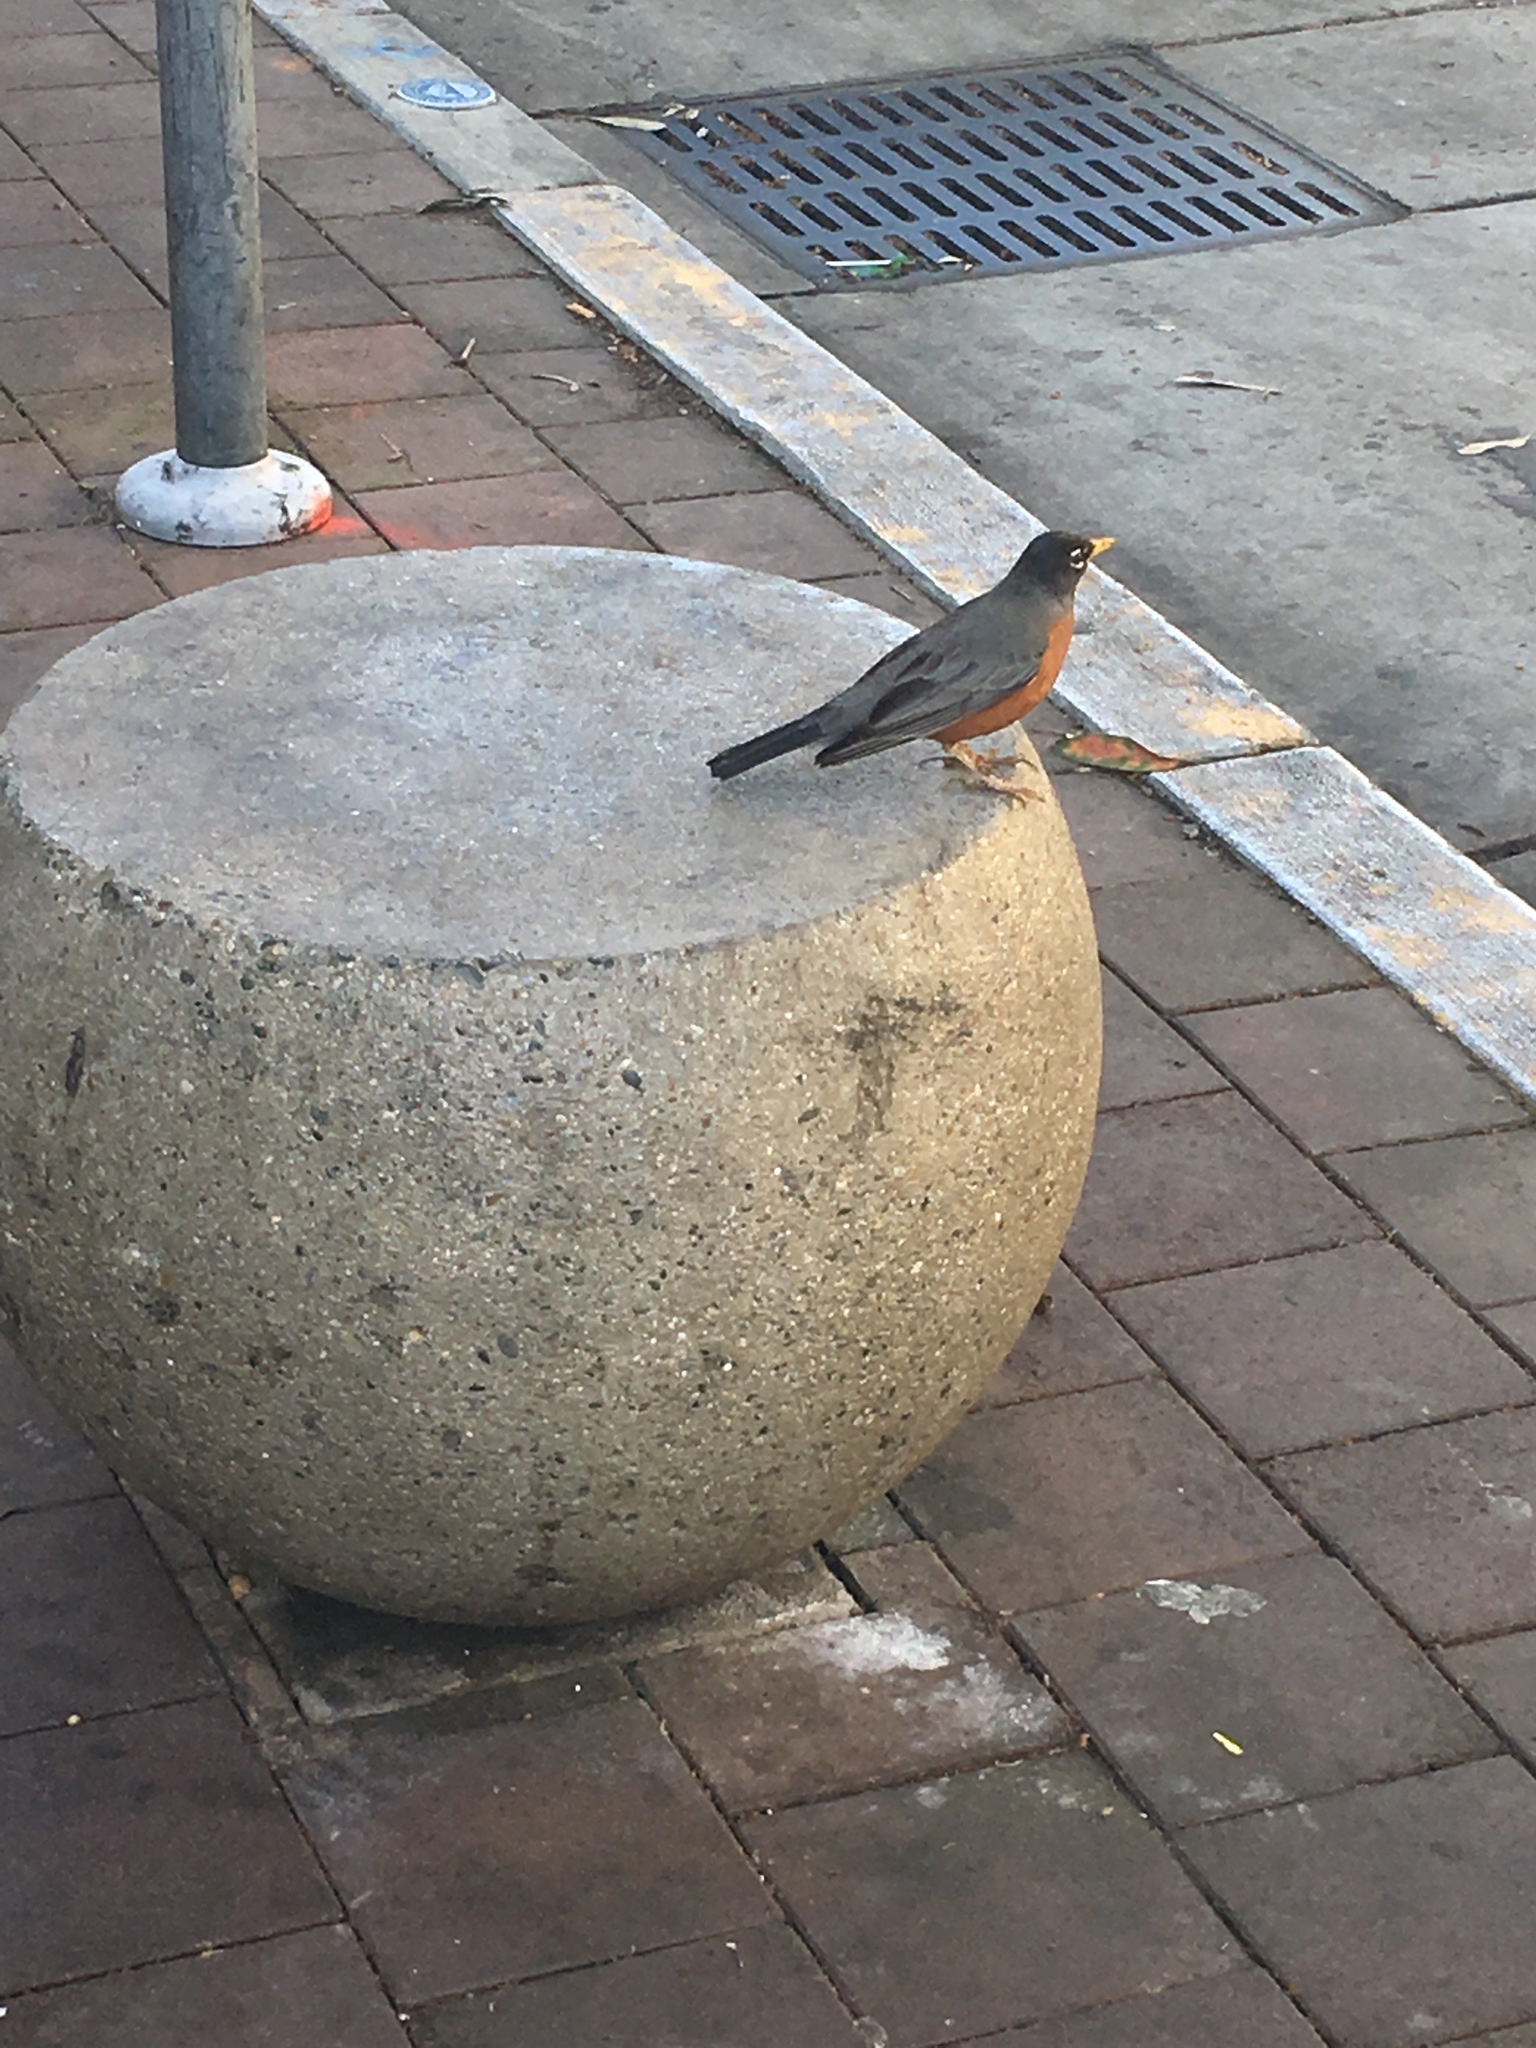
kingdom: Animalia
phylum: Chordata
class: Aves
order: Passeriformes
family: Turdidae
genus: Turdus
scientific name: Turdus migratorius
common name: American robin
